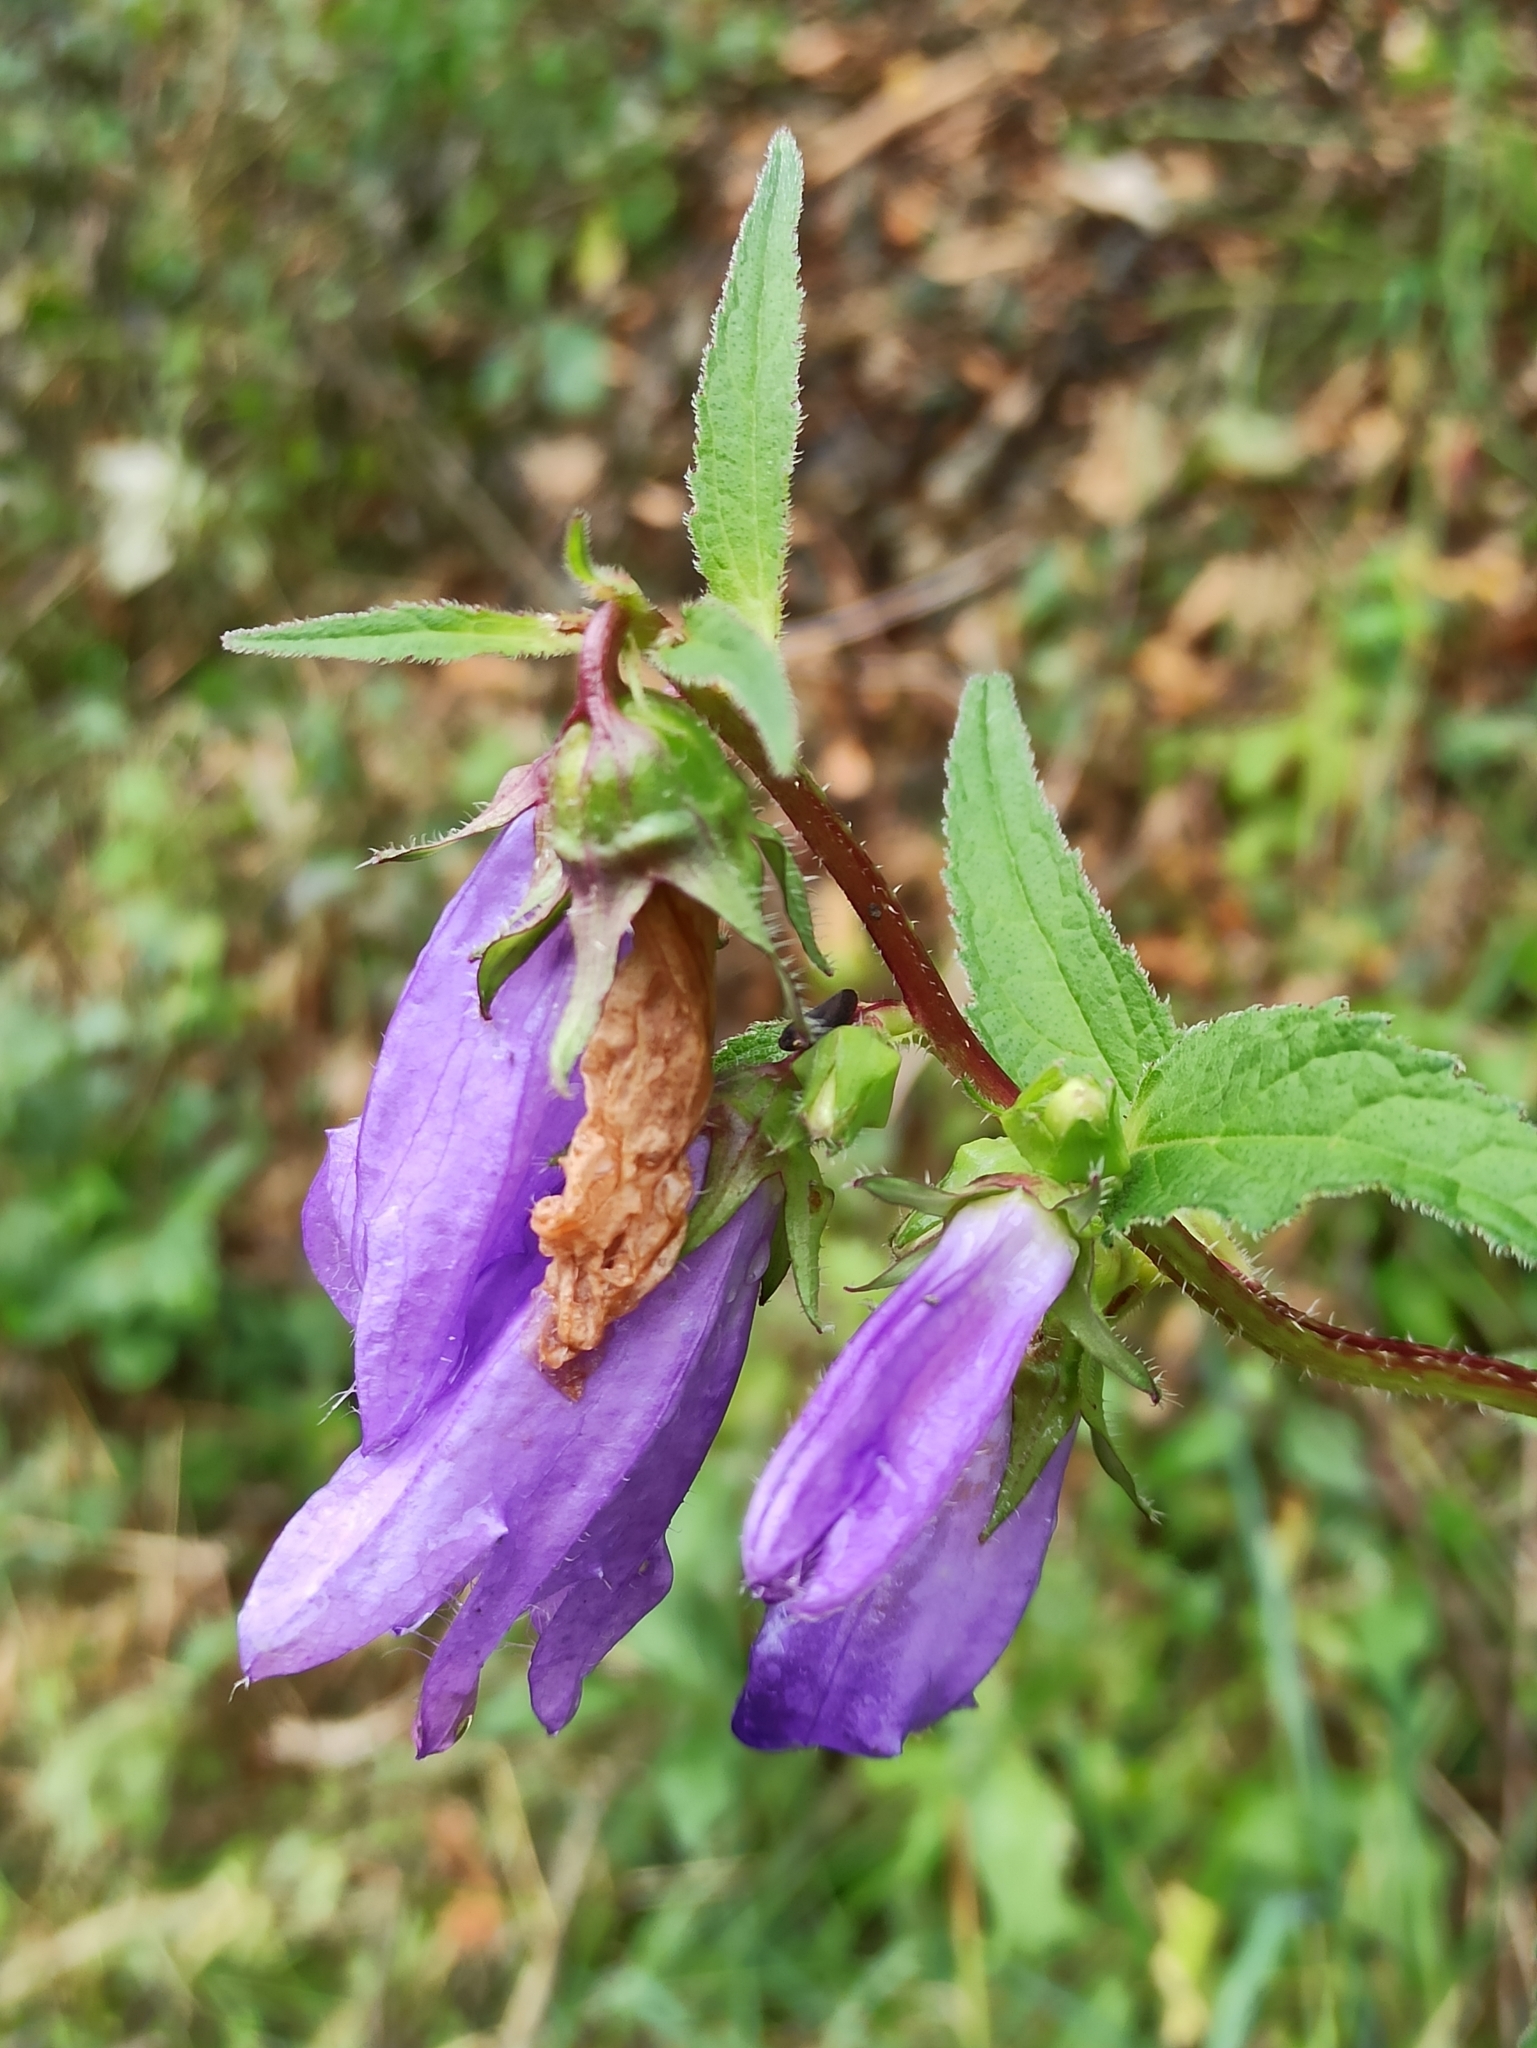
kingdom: Plantae
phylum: Tracheophyta
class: Magnoliopsida
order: Asterales
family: Campanulaceae
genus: Campanula
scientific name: Campanula trachelium
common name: Nettle-leaved bellflower
